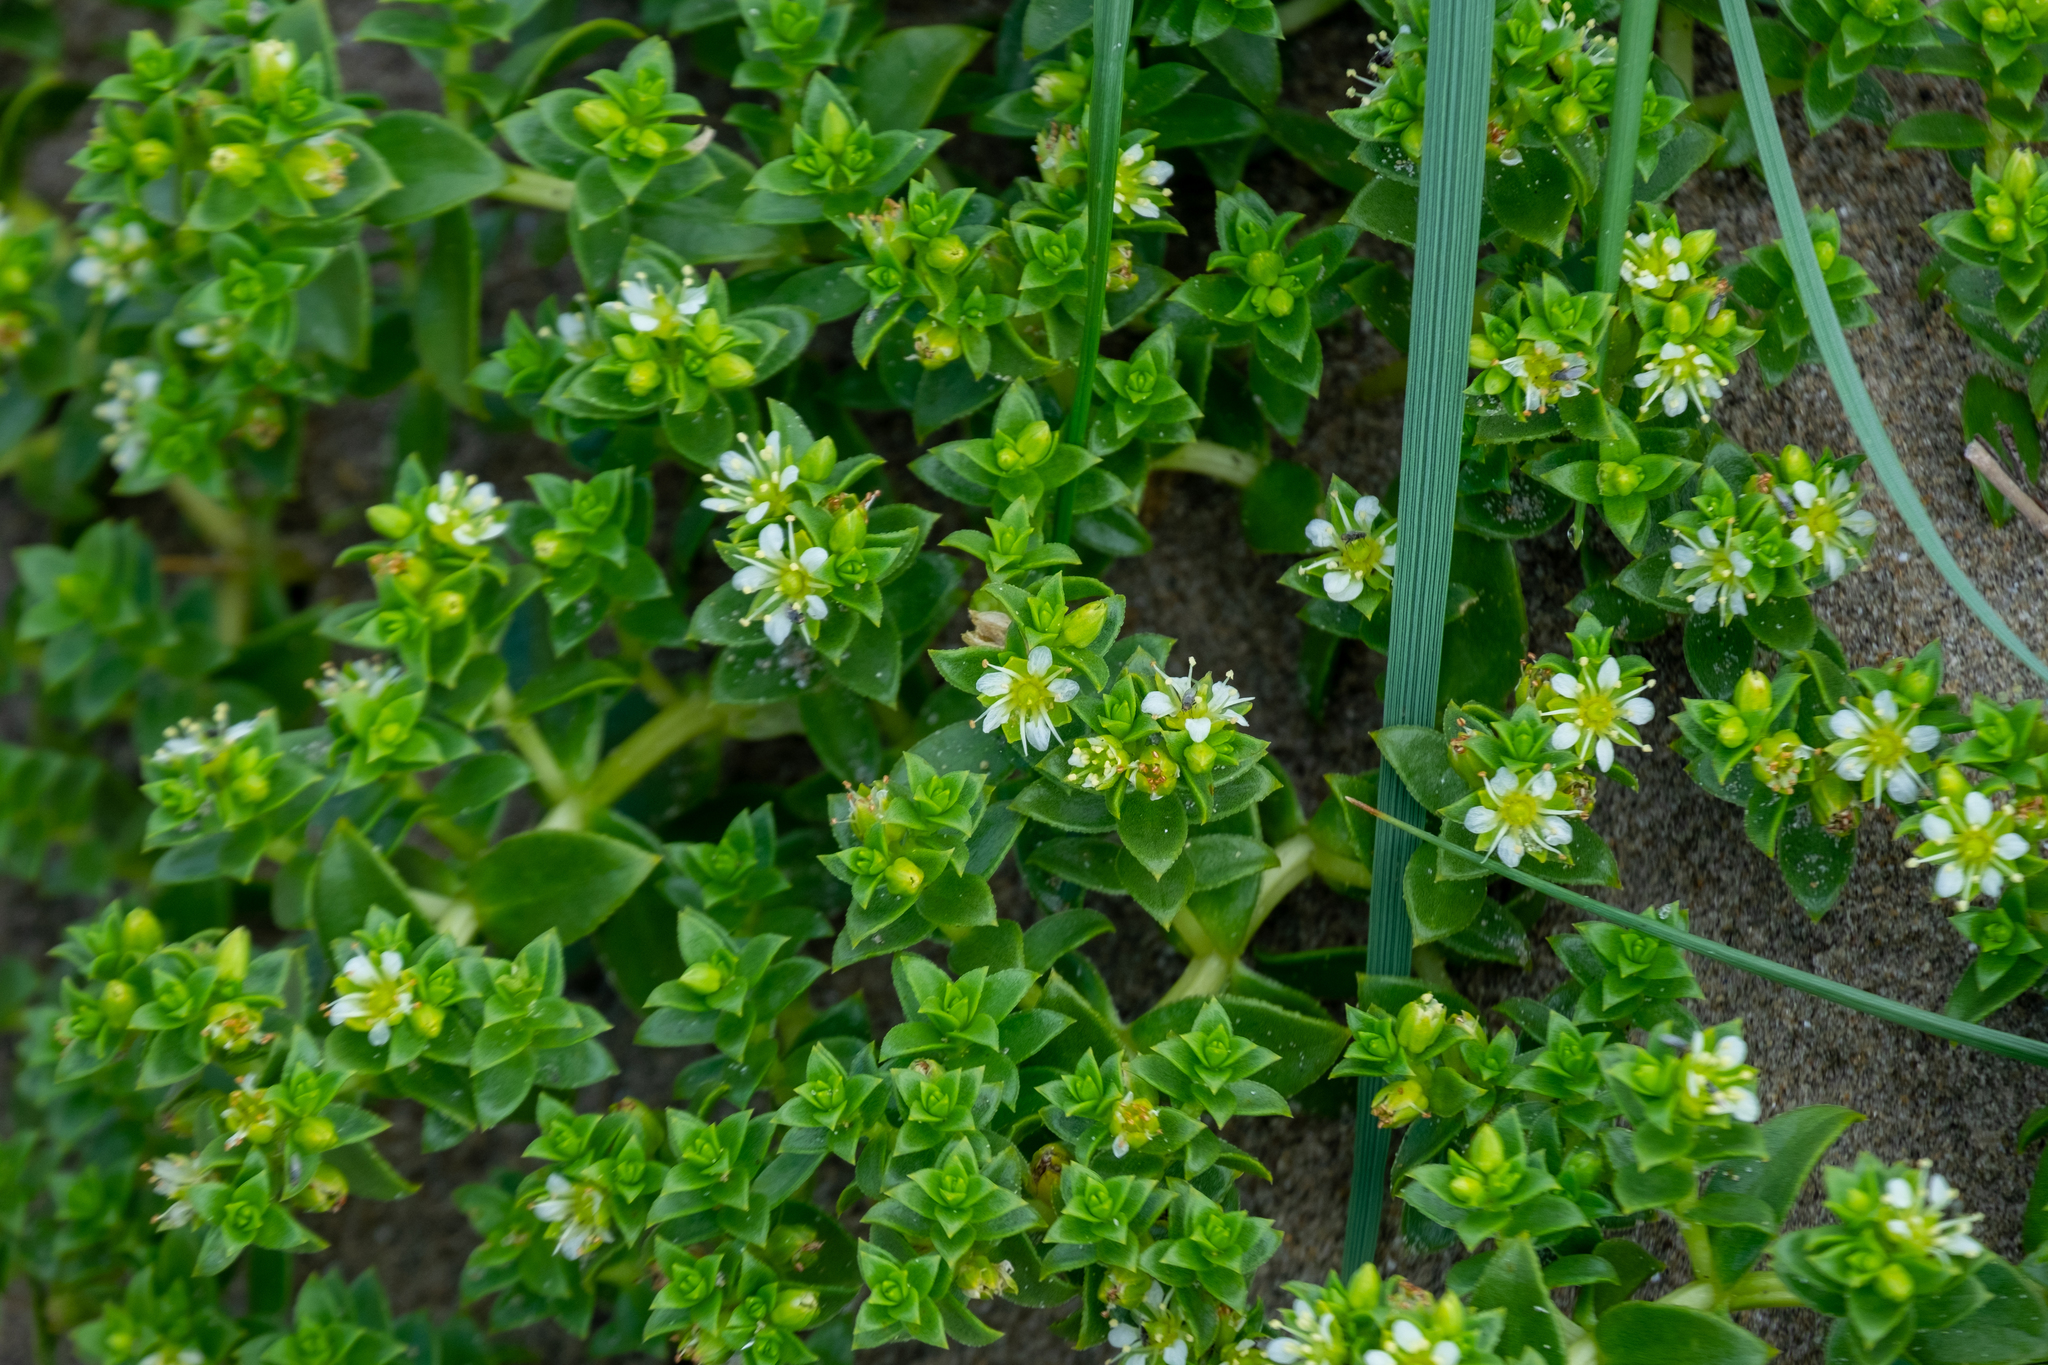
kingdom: Plantae
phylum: Tracheophyta
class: Magnoliopsida
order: Caryophyllales
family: Caryophyllaceae
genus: Honckenya
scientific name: Honckenya peploides
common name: Sea sandwort
